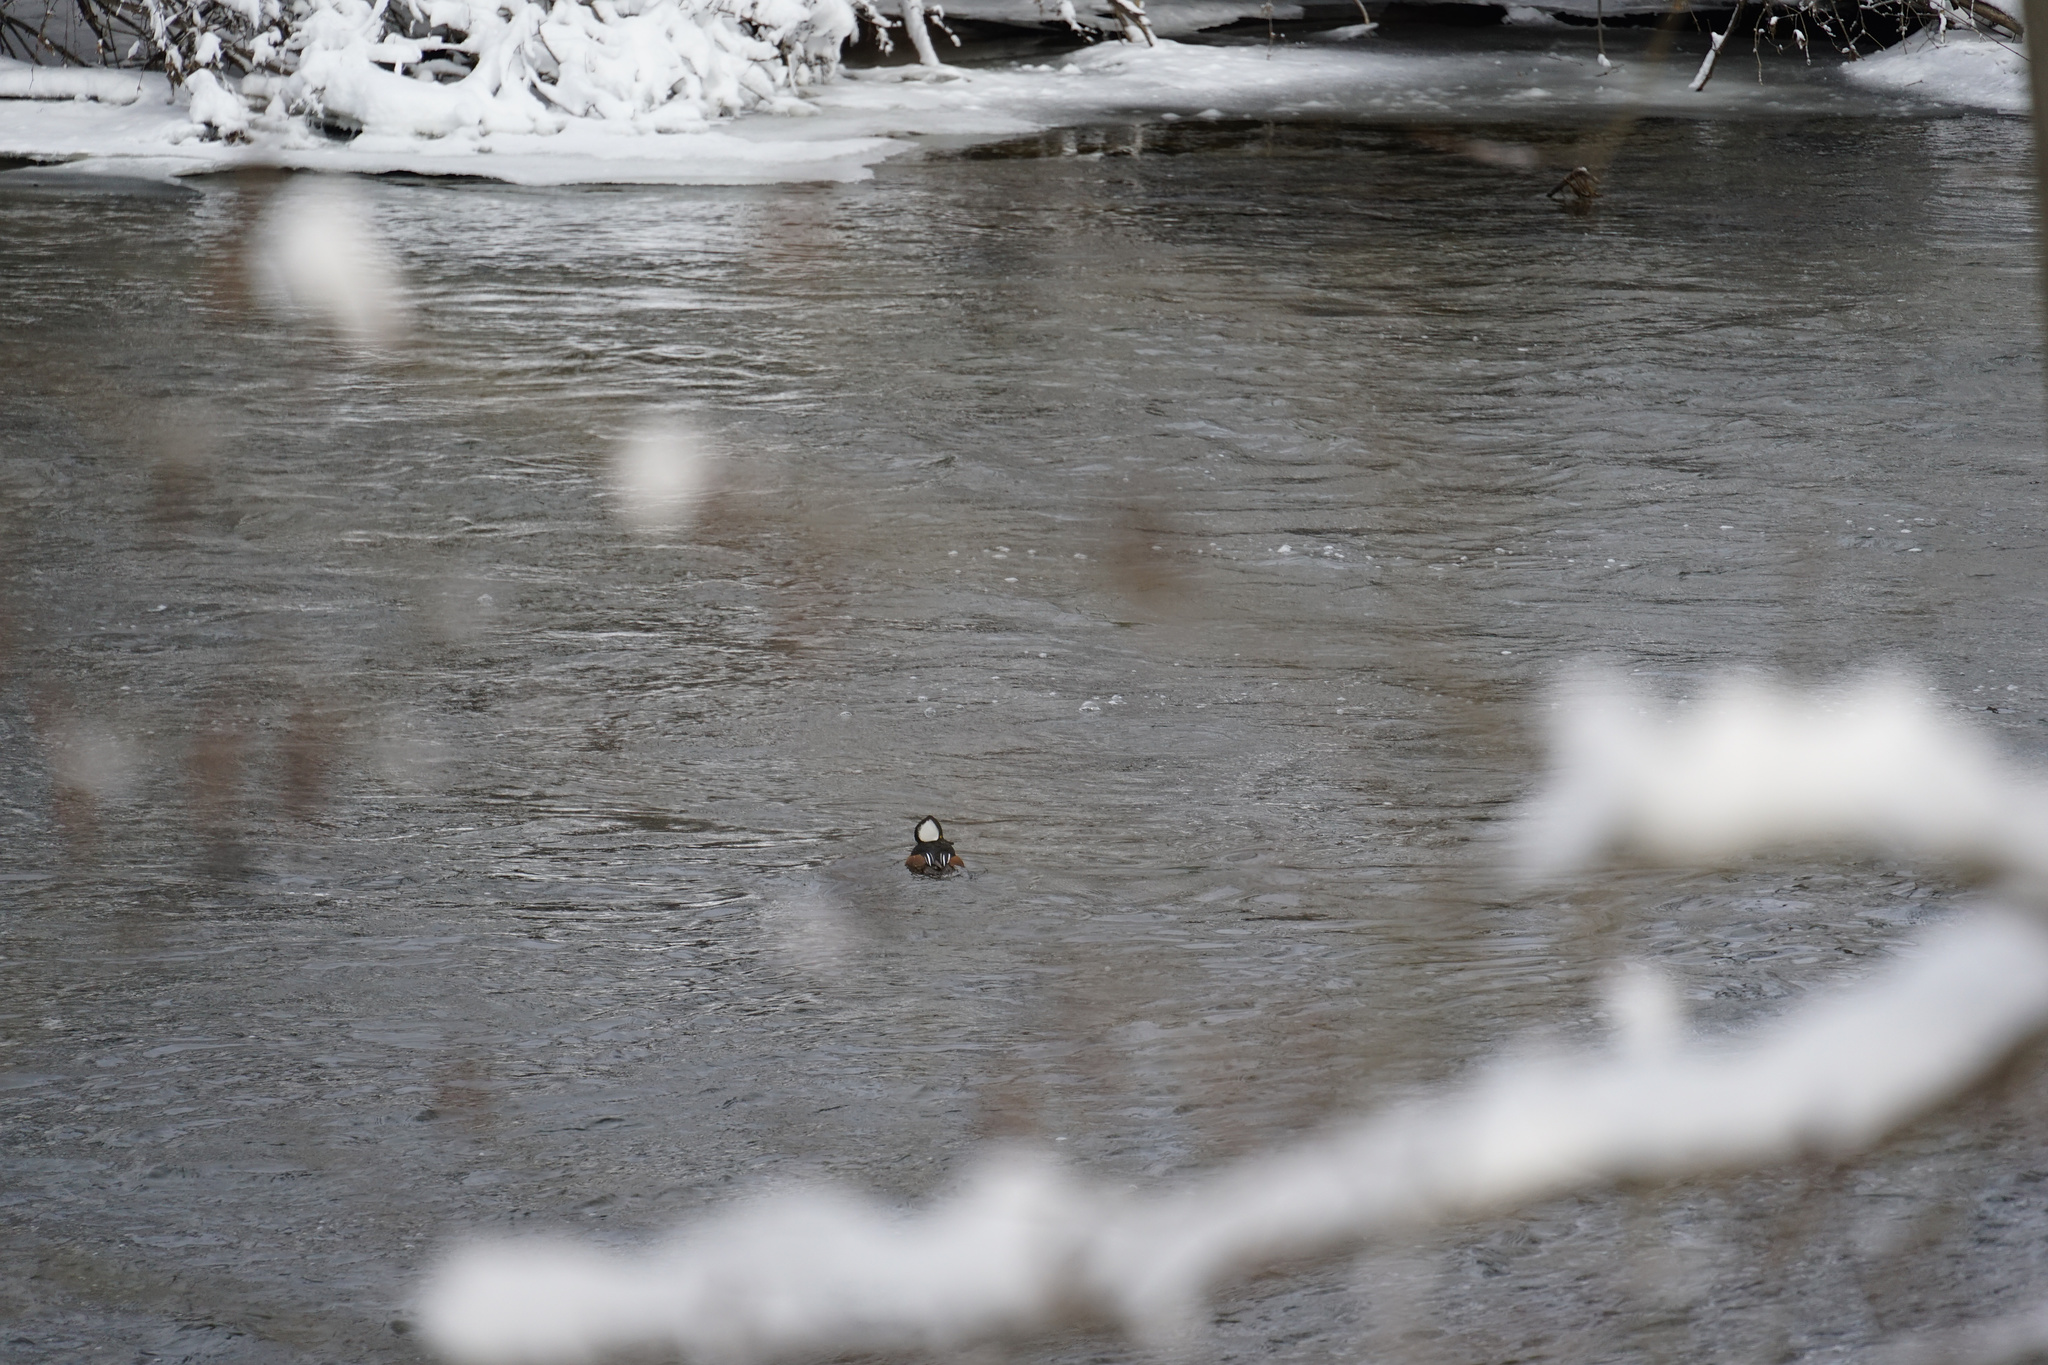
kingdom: Animalia
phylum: Chordata
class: Aves
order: Anseriformes
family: Anatidae
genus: Lophodytes
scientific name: Lophodytes cucullatus
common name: Hooded merganser
